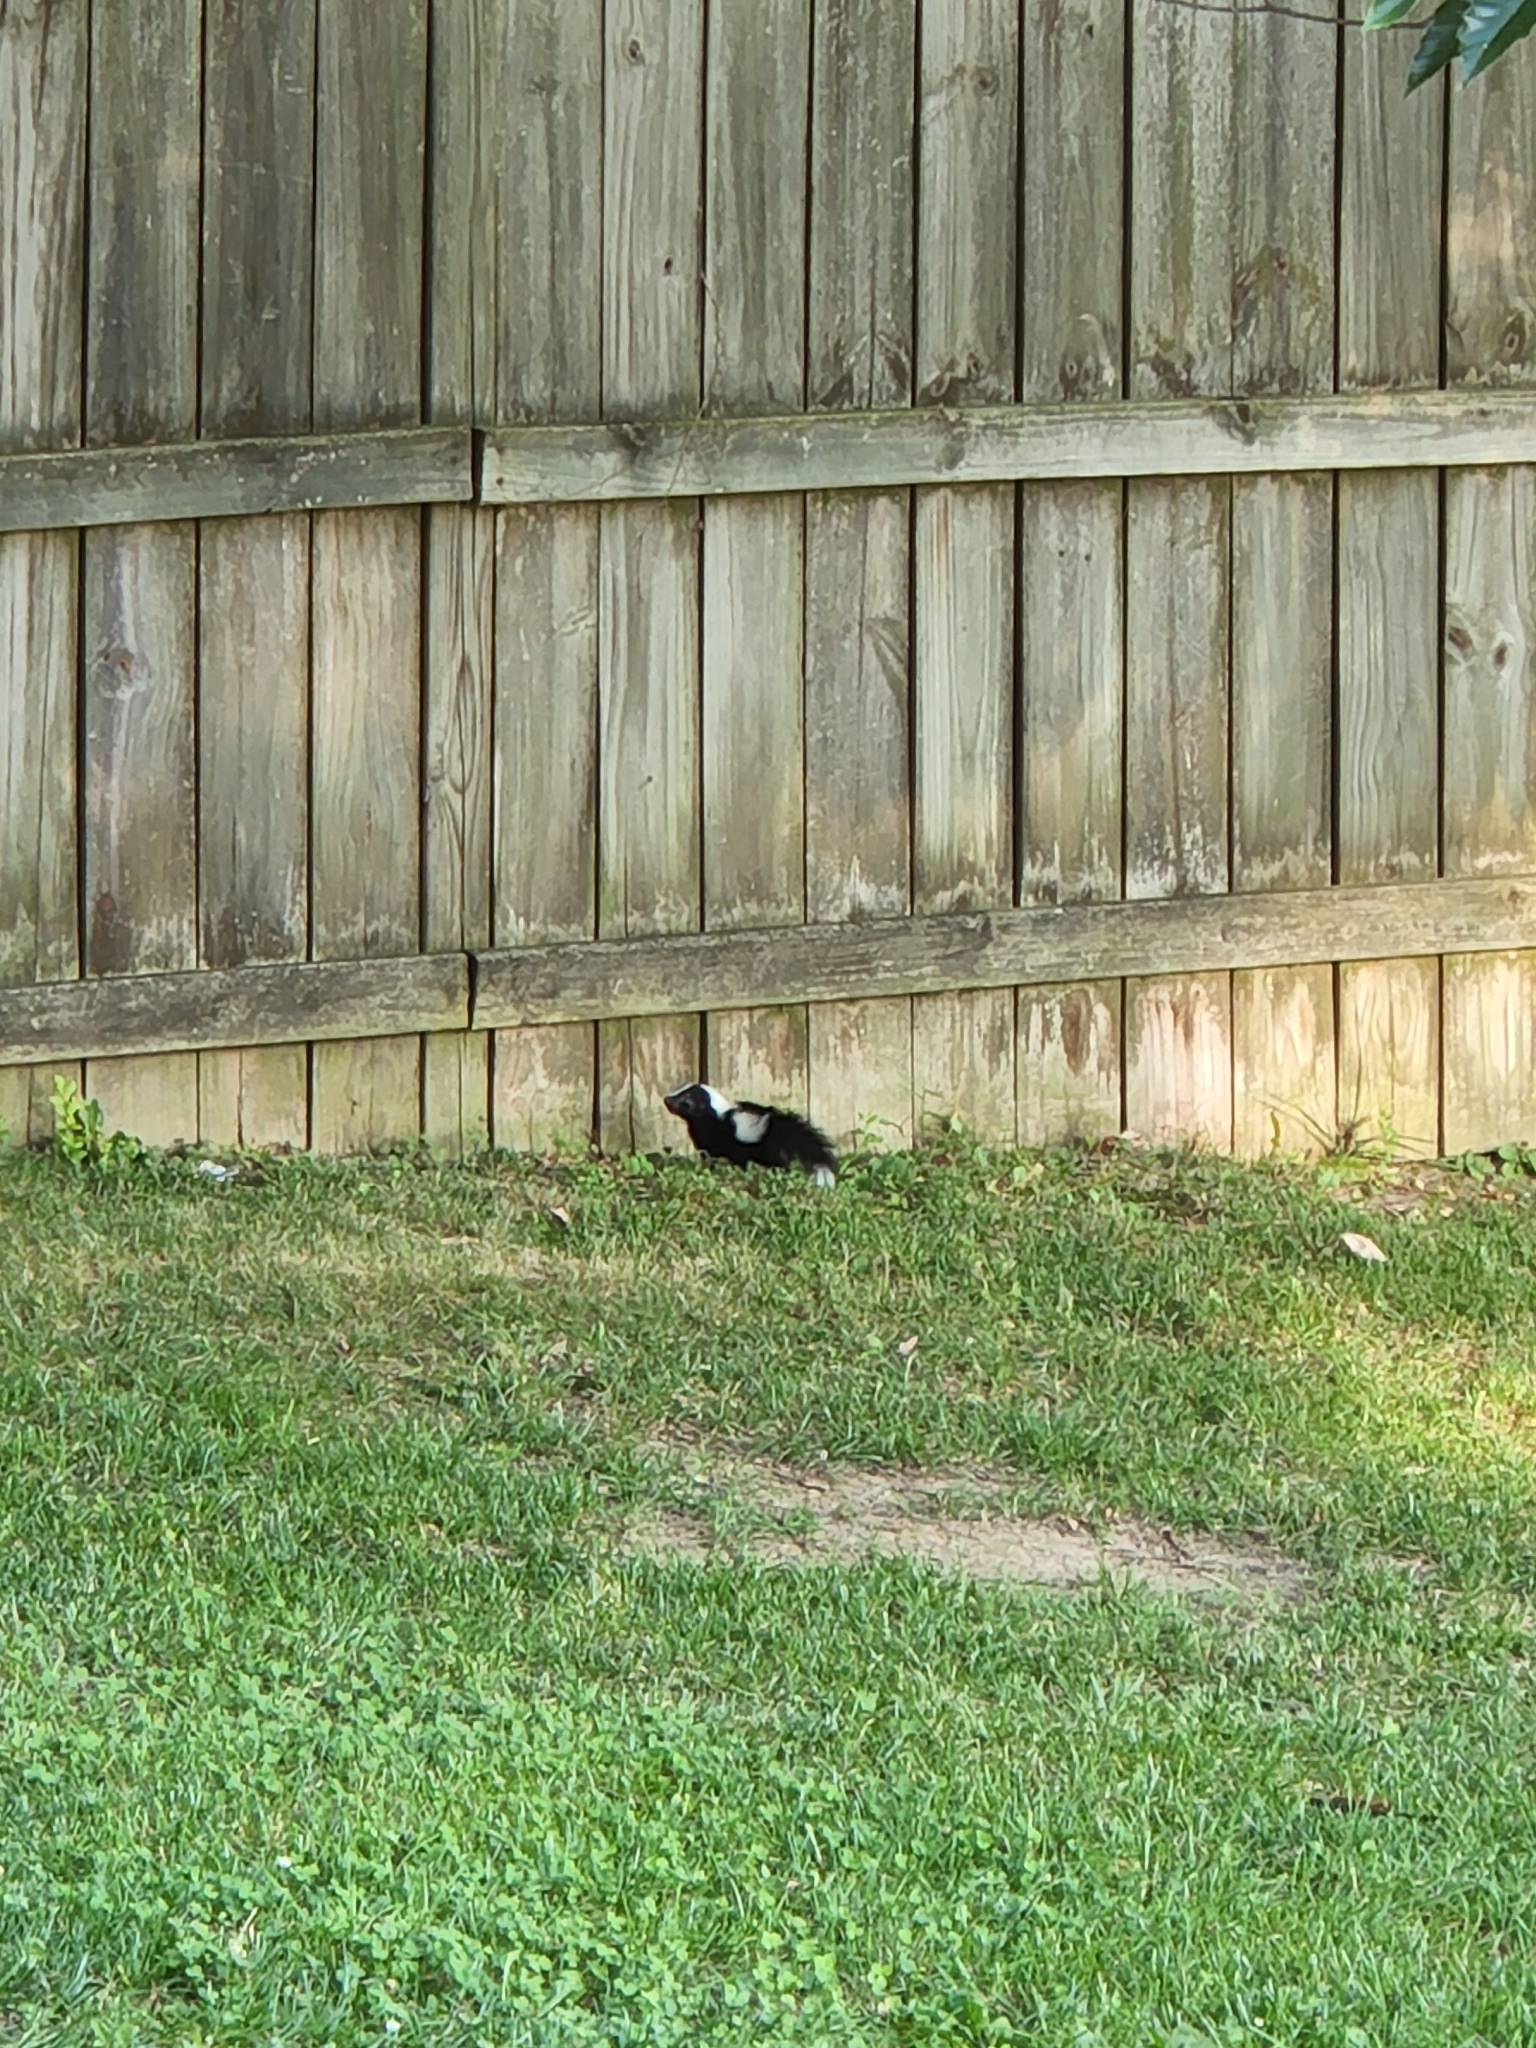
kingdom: Animalia
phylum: Chordata
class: Mammalia
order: Carnivora
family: Mephitidae
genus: Mephitis
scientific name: Mephitis mephitis
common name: Striped skunk
